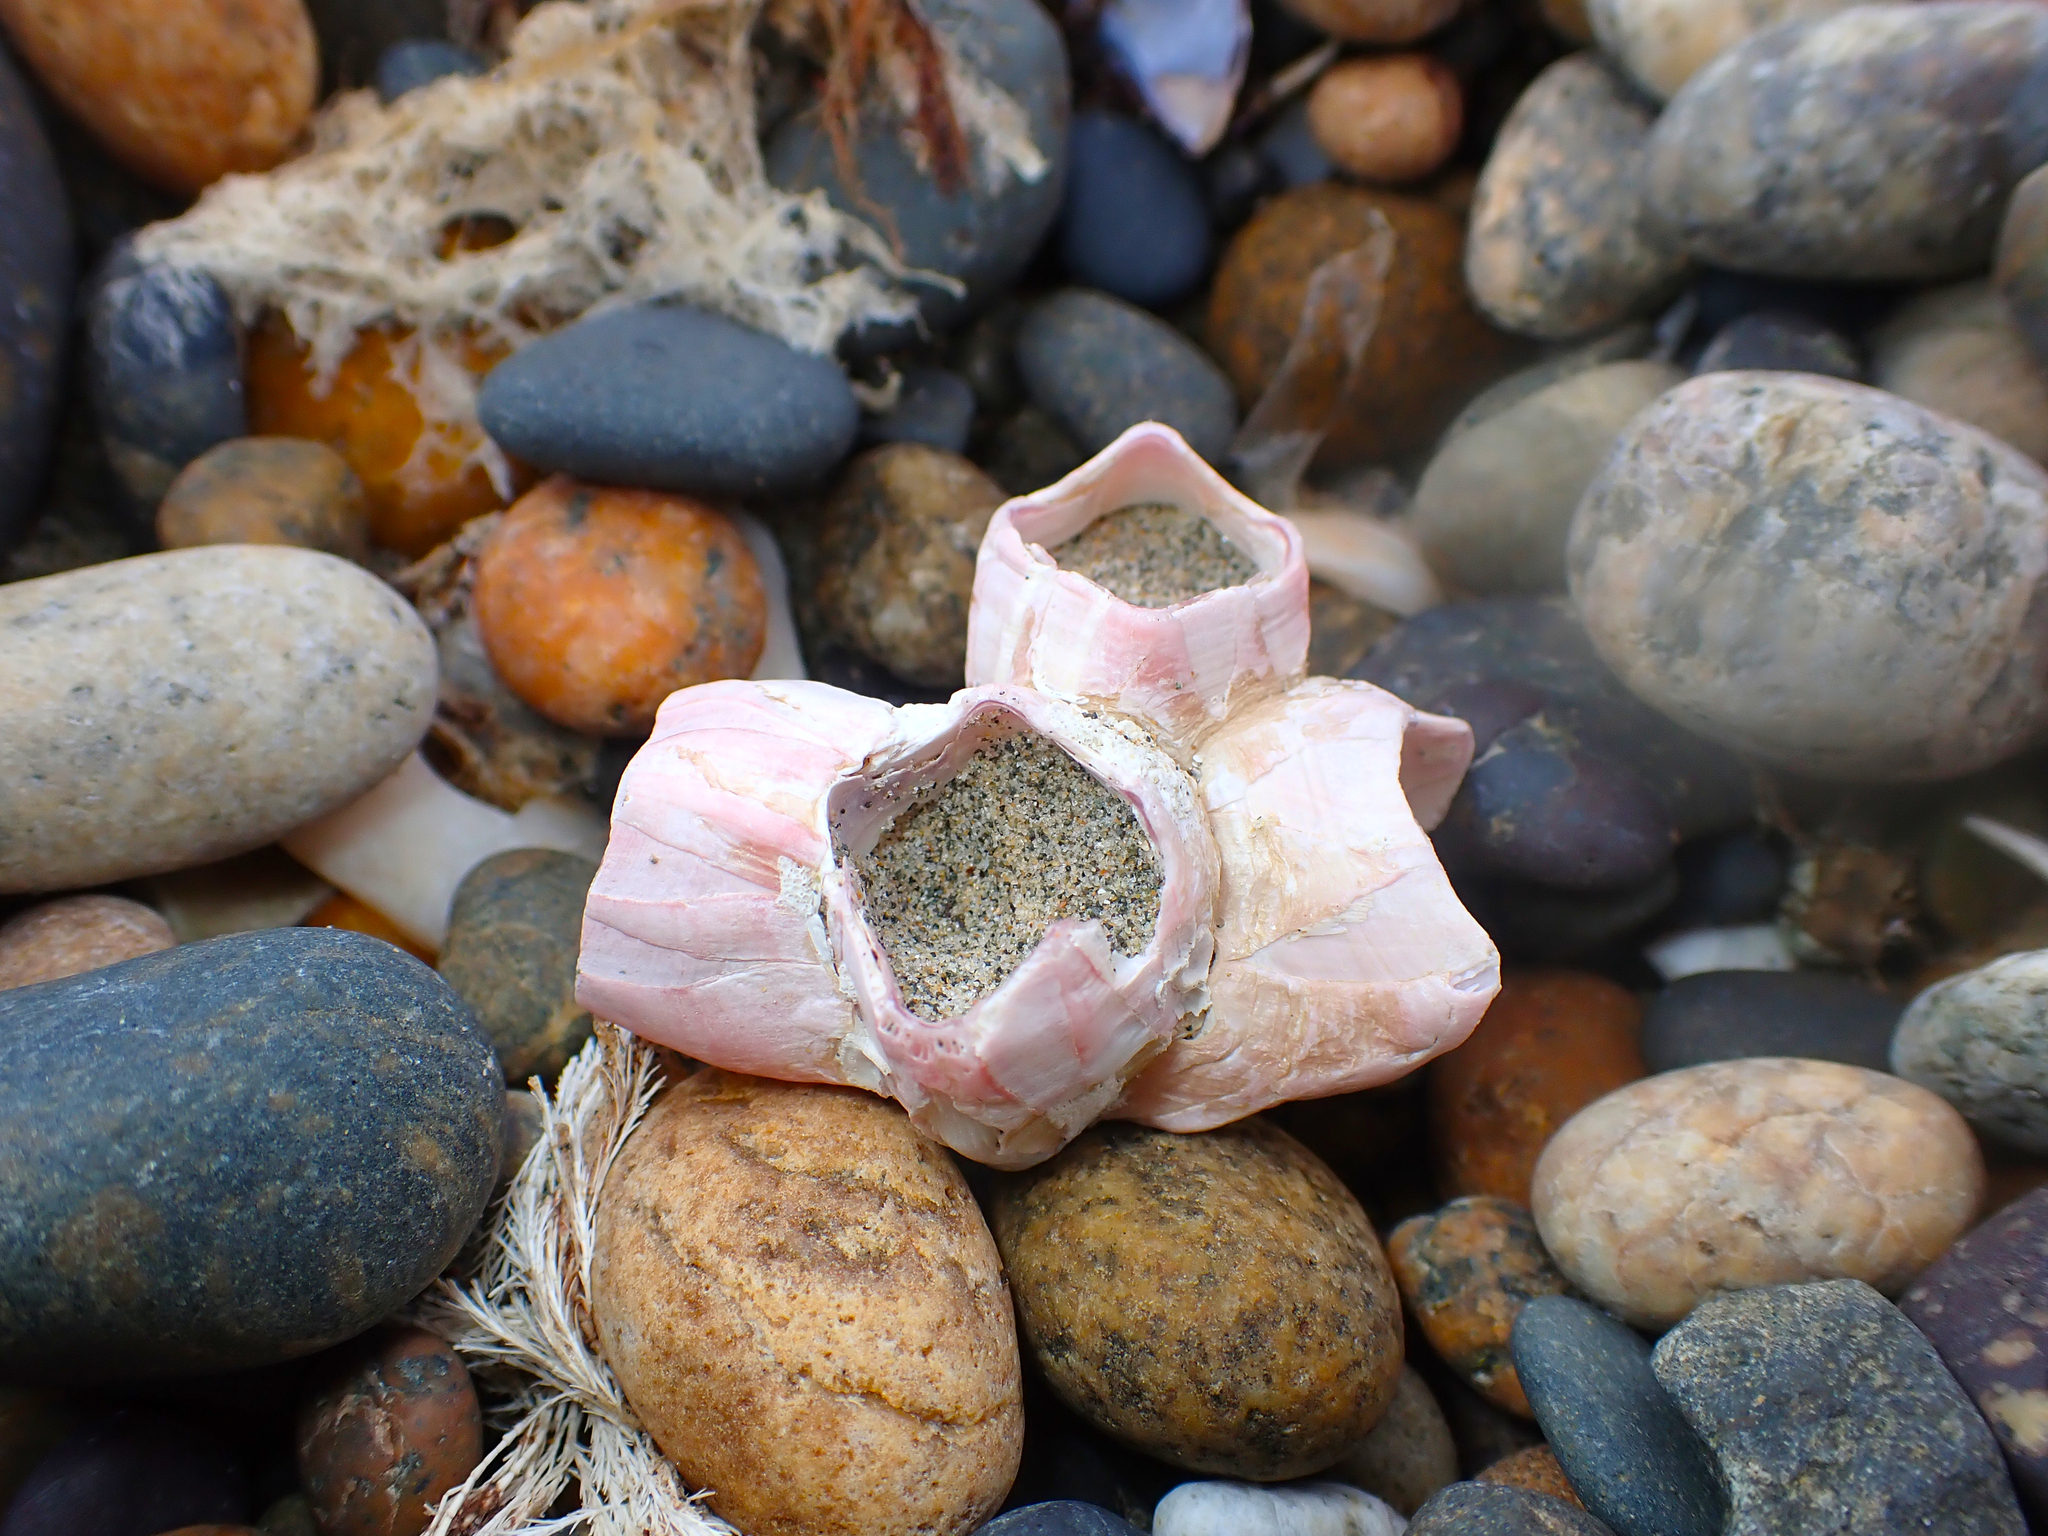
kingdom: Animalia
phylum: Arthropoda
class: Maxillopoda
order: Sessilia
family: Balanidae
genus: Notomegabalanus
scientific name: Notomegabalanus decorus
